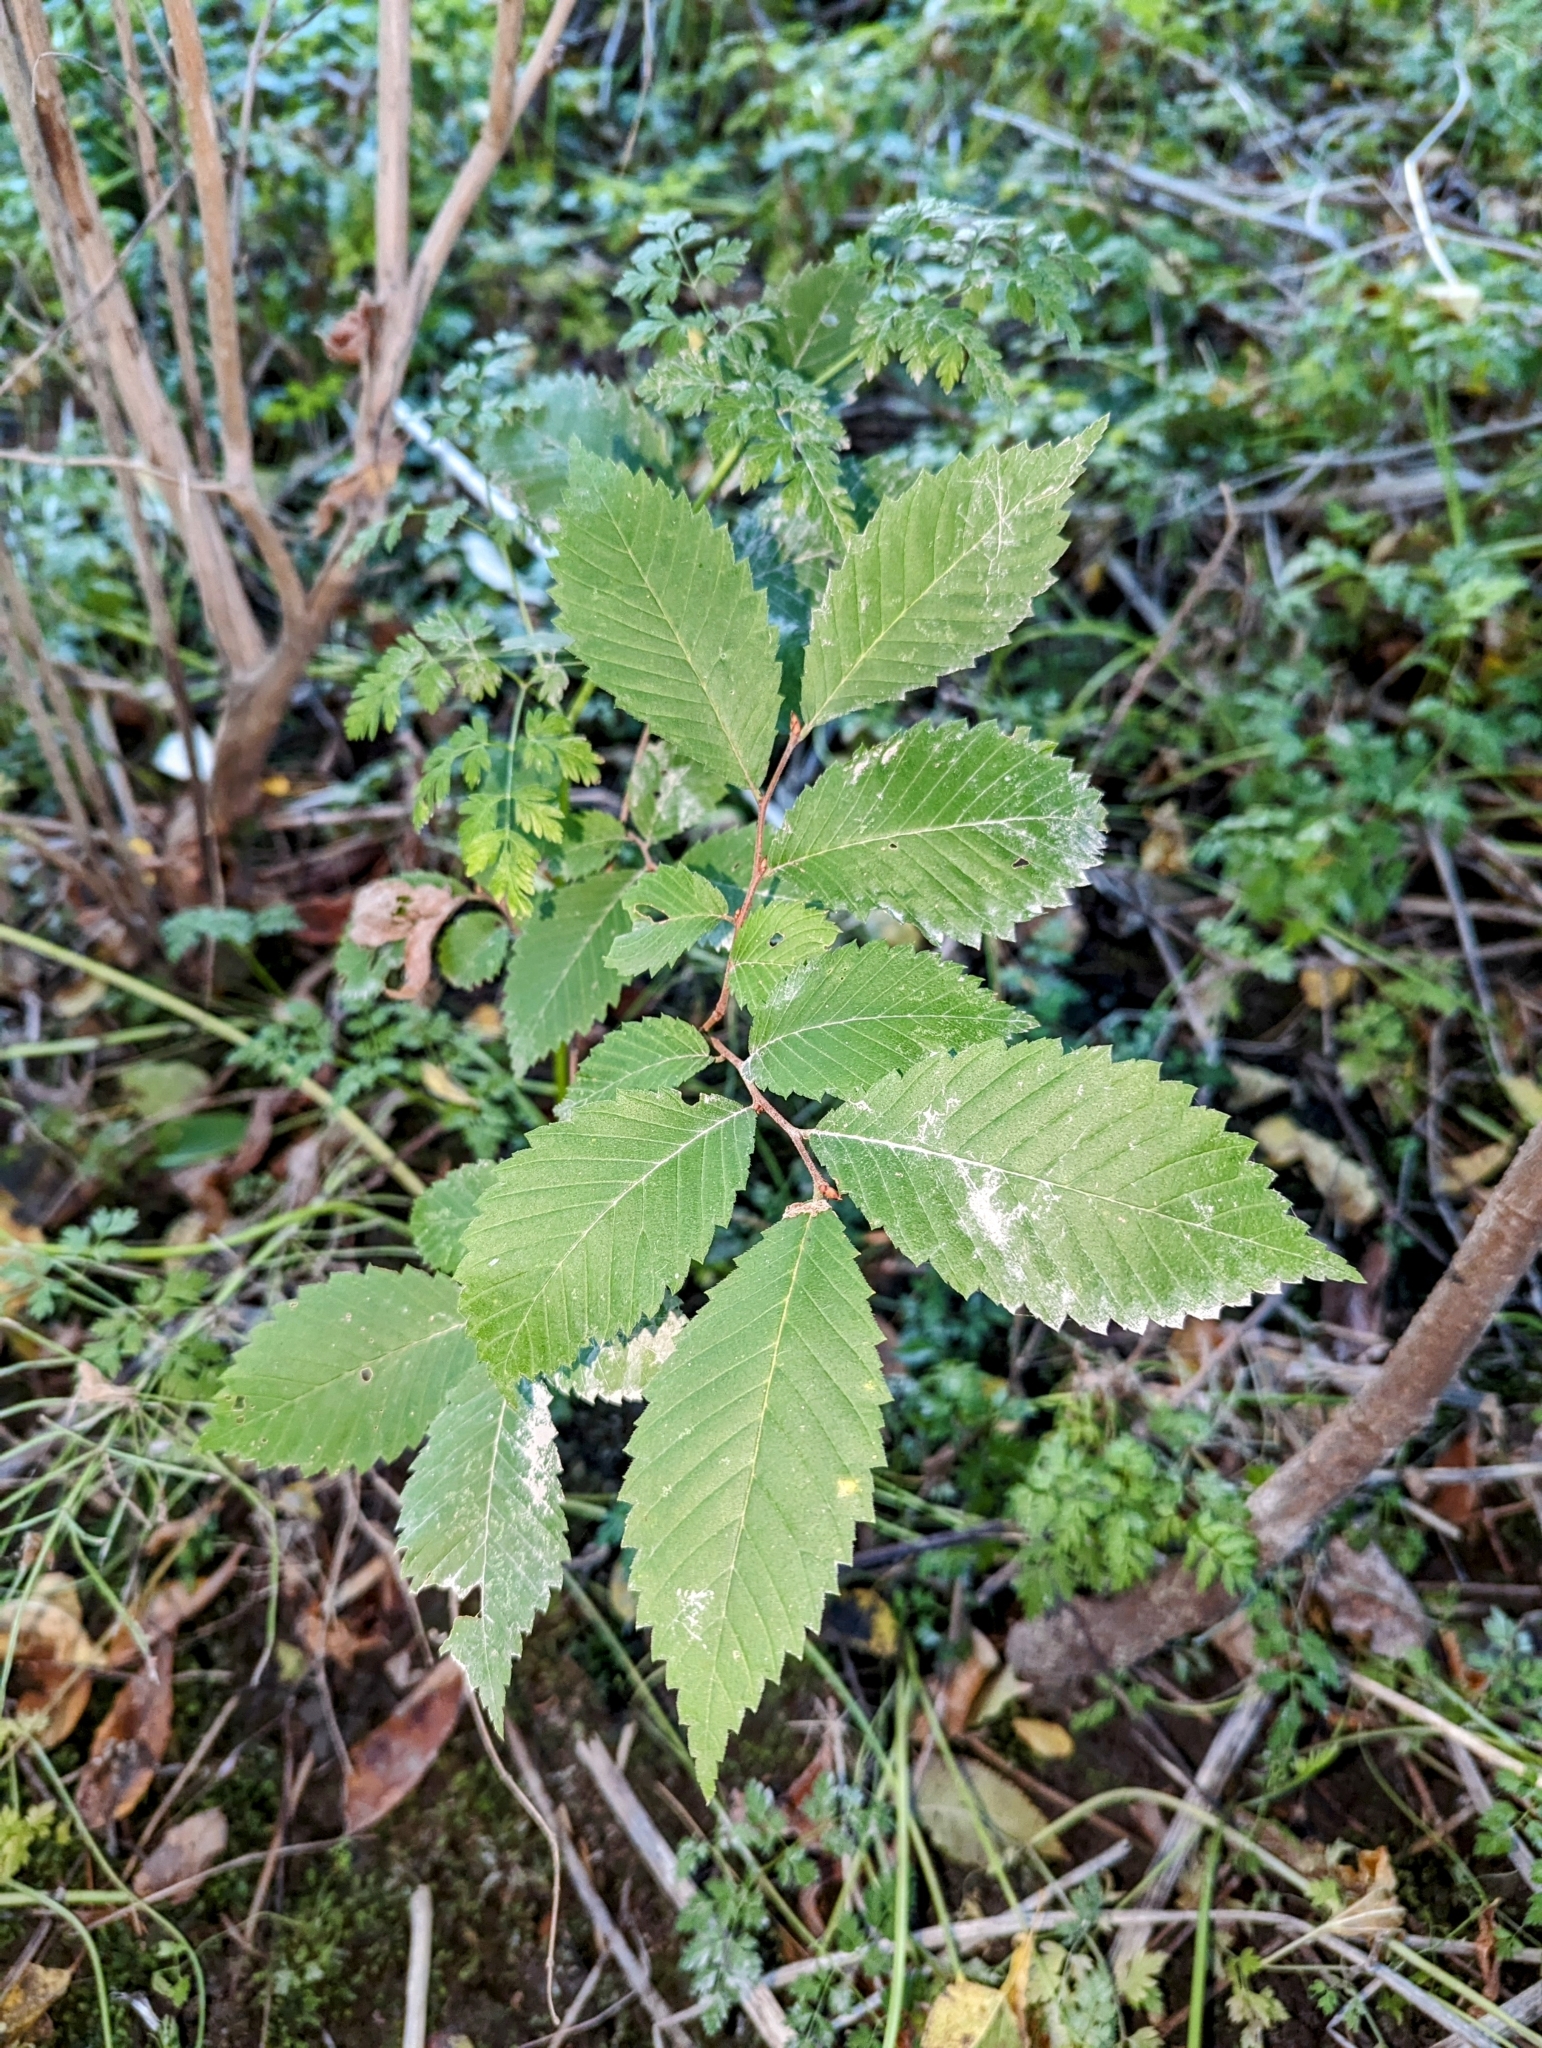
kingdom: Plantae
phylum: Tracheophyta
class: Magnoliopsida
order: Rosales
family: Ulmaceae
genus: Ulmus
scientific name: Ulmus americana
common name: American elm
